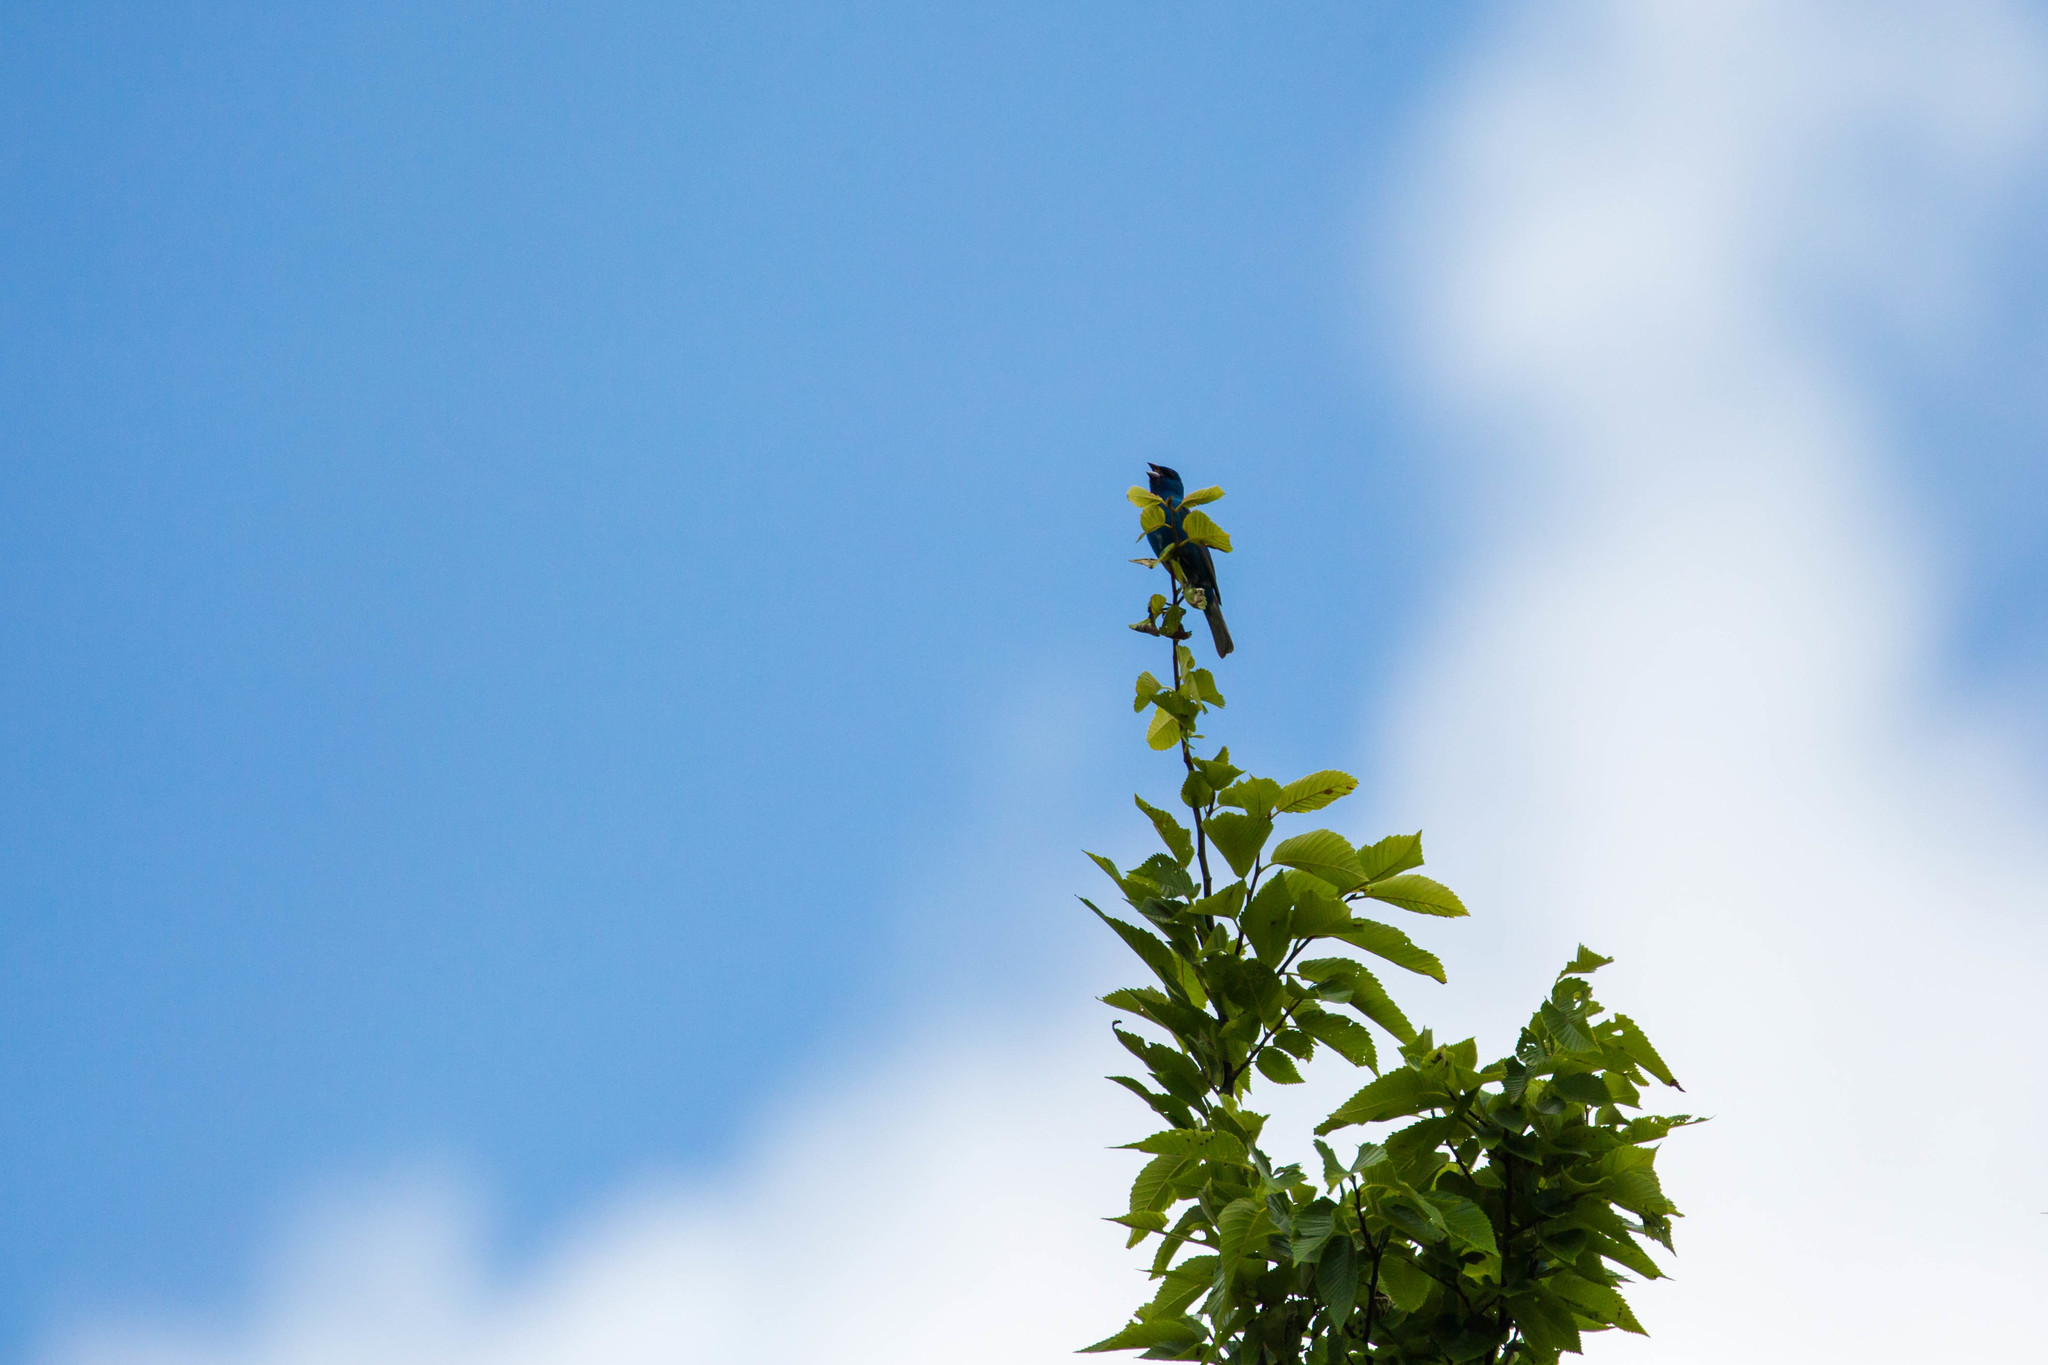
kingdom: Animalia
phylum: Chordata
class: Aves
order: Passeriformes
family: Cardinalidae
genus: Passerina
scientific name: Passerina cyanea
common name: Indigo bunting
